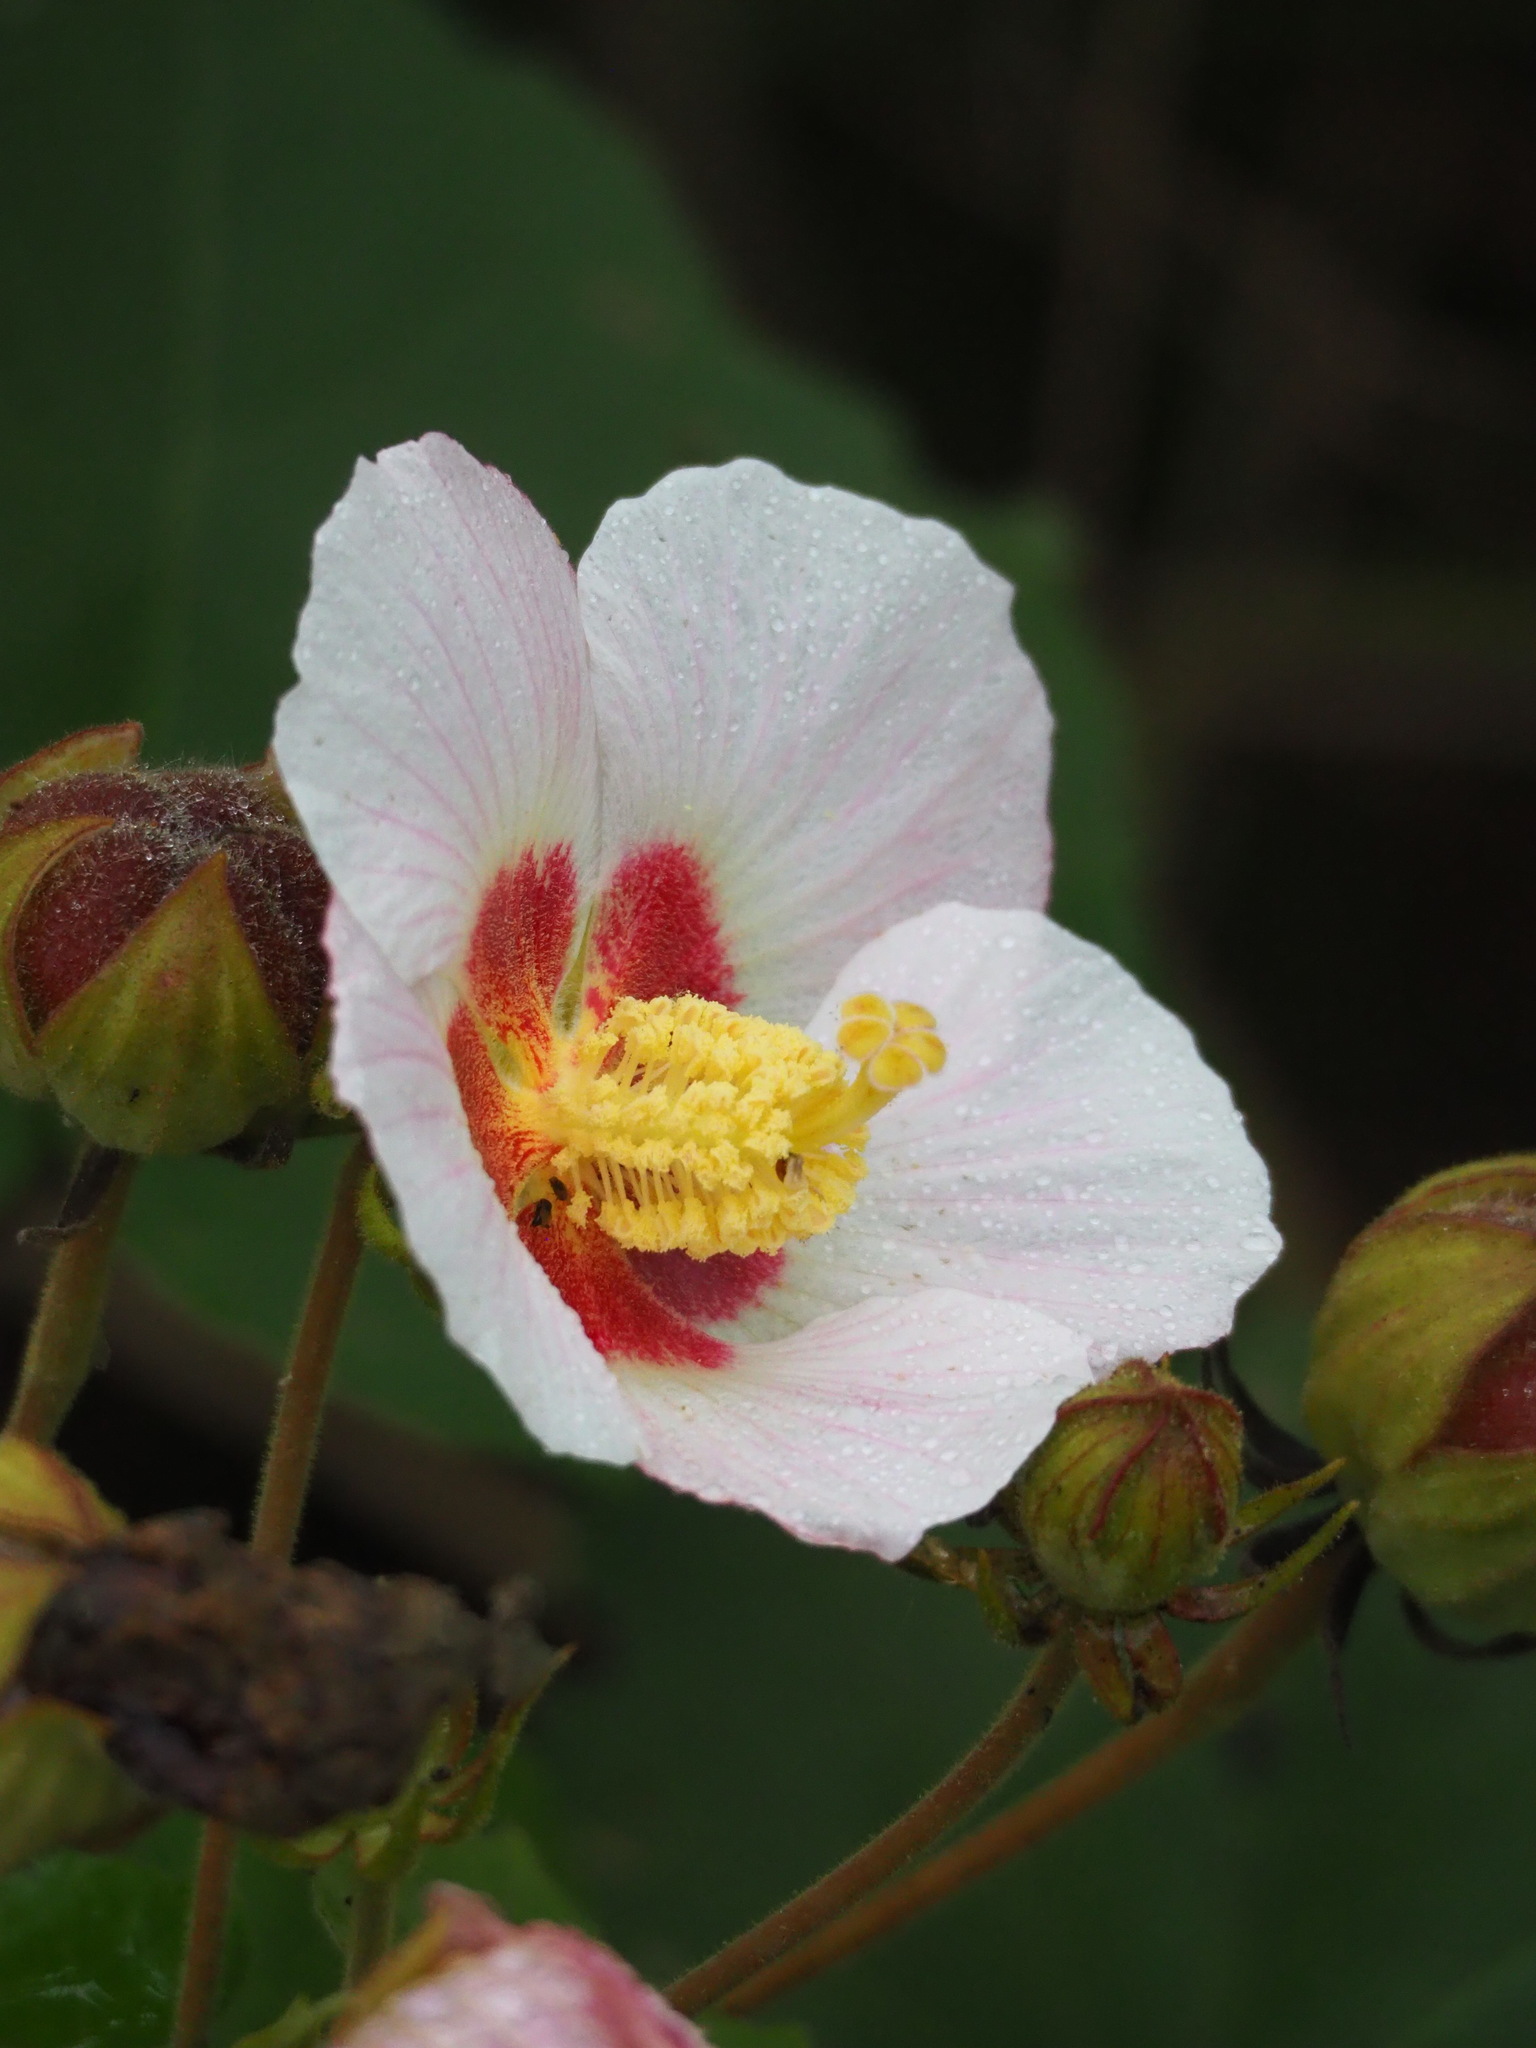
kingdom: Plantae
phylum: Tracheophyta
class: Magnoliopsida
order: Malvales
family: Malvaceae
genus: Hibiscus
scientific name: Hibiscus taiwanensis
